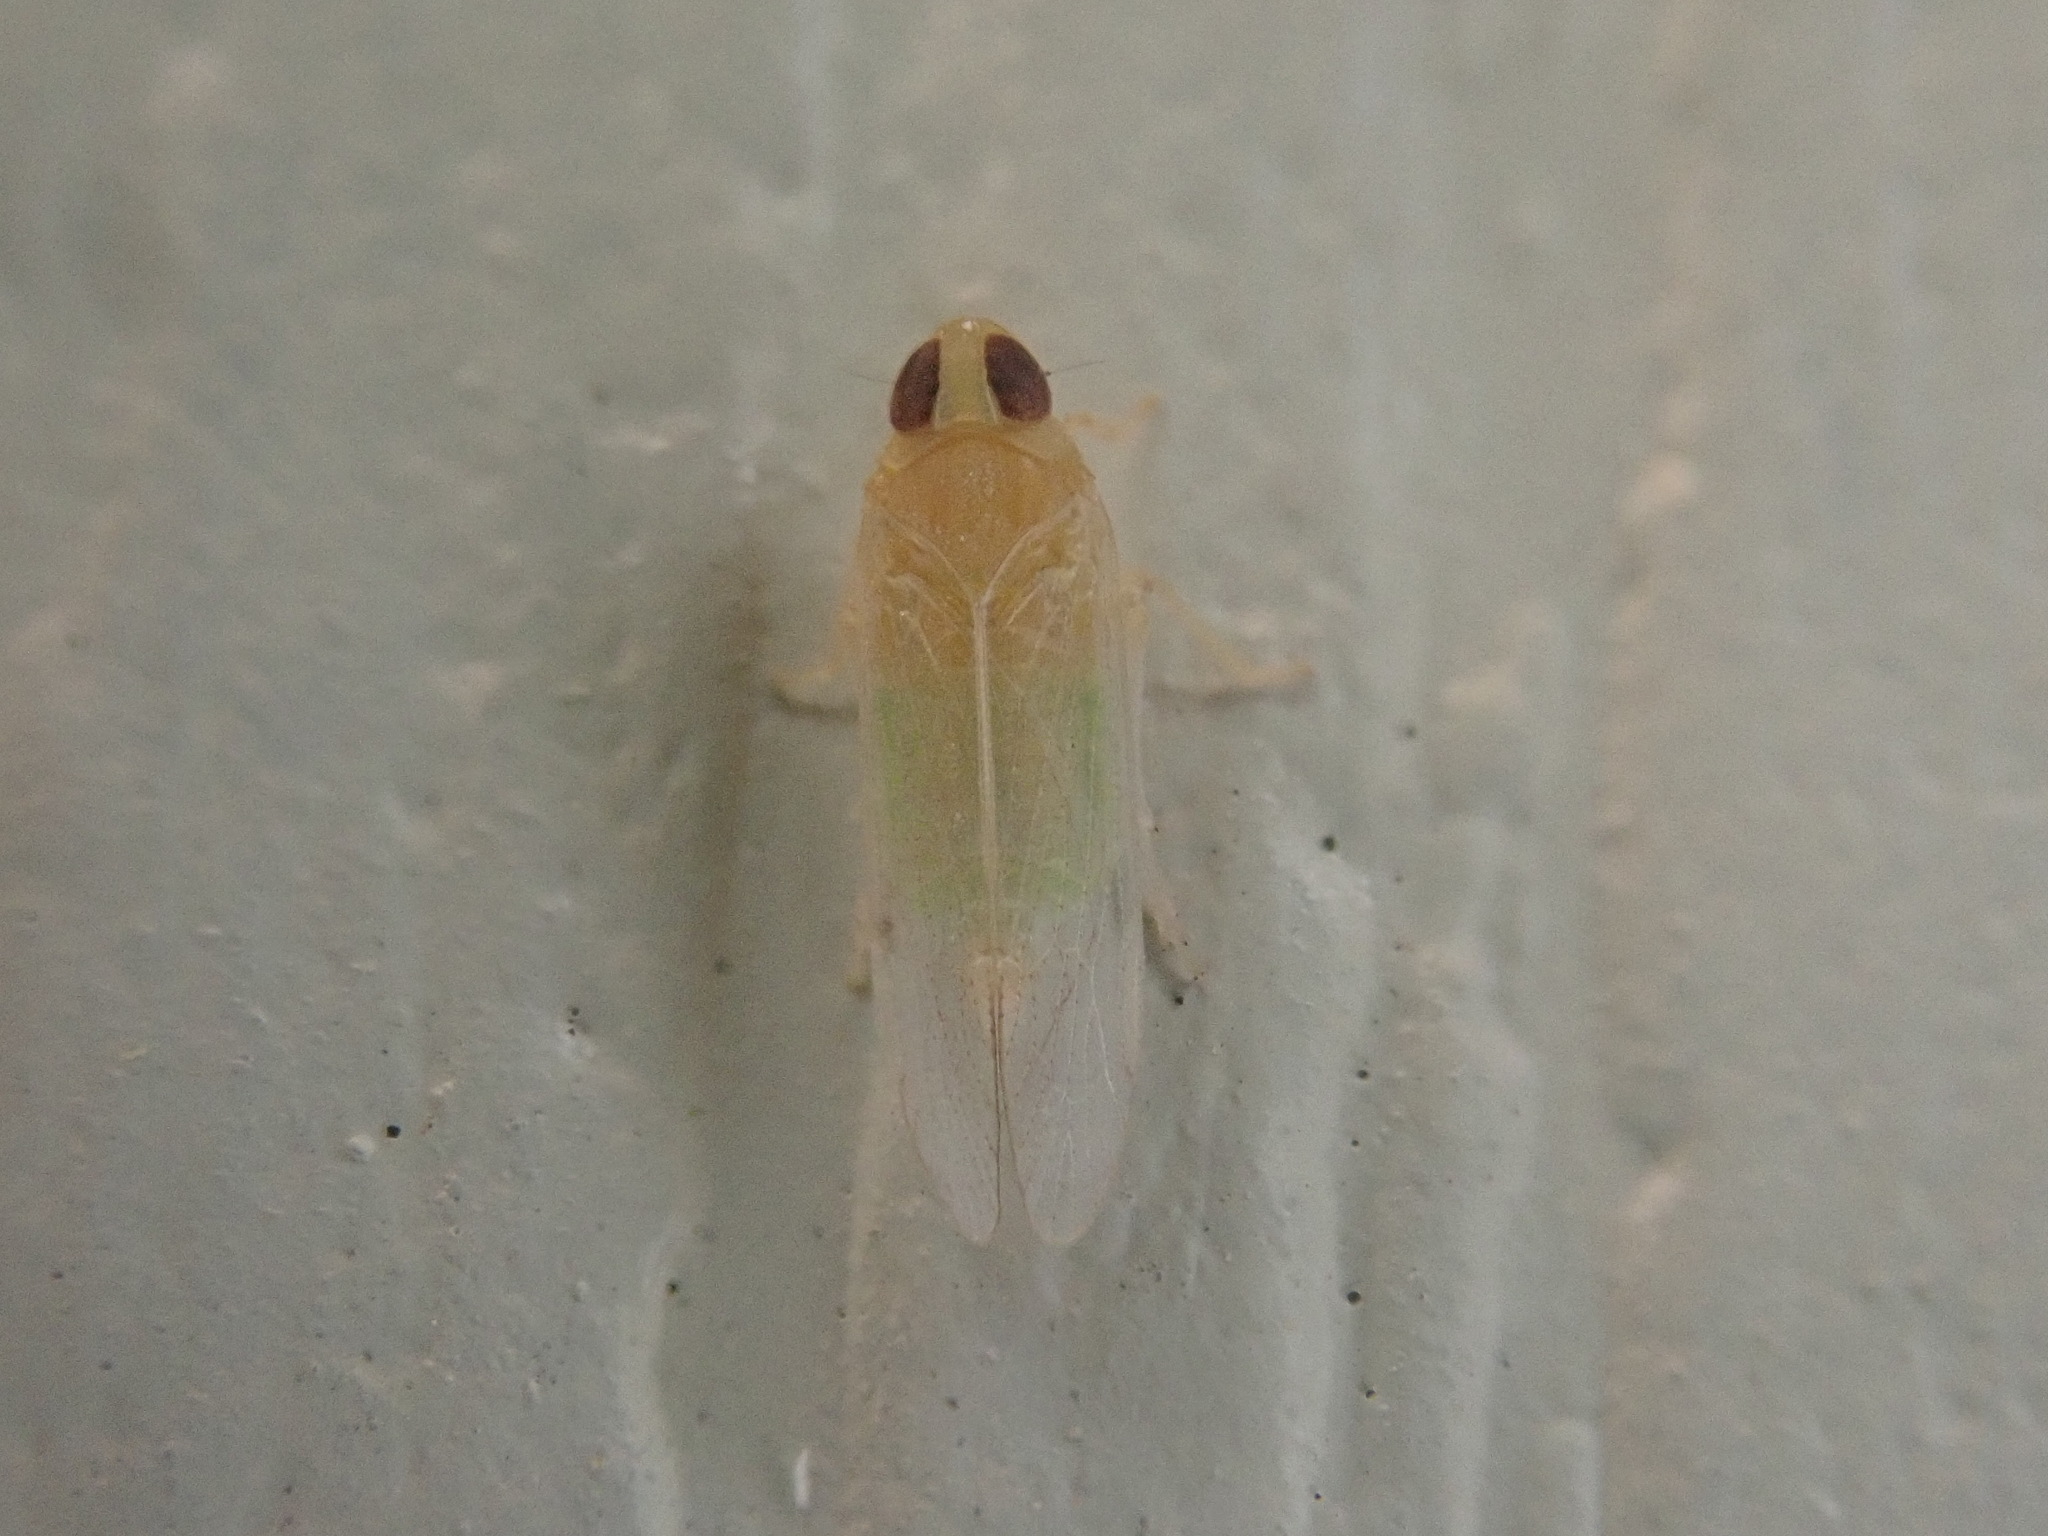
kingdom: Animalia
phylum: Arthropoda
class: Insecta
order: Hemiptera
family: Cixiidae
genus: Haplaxius
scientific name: Haplaxius crudus
